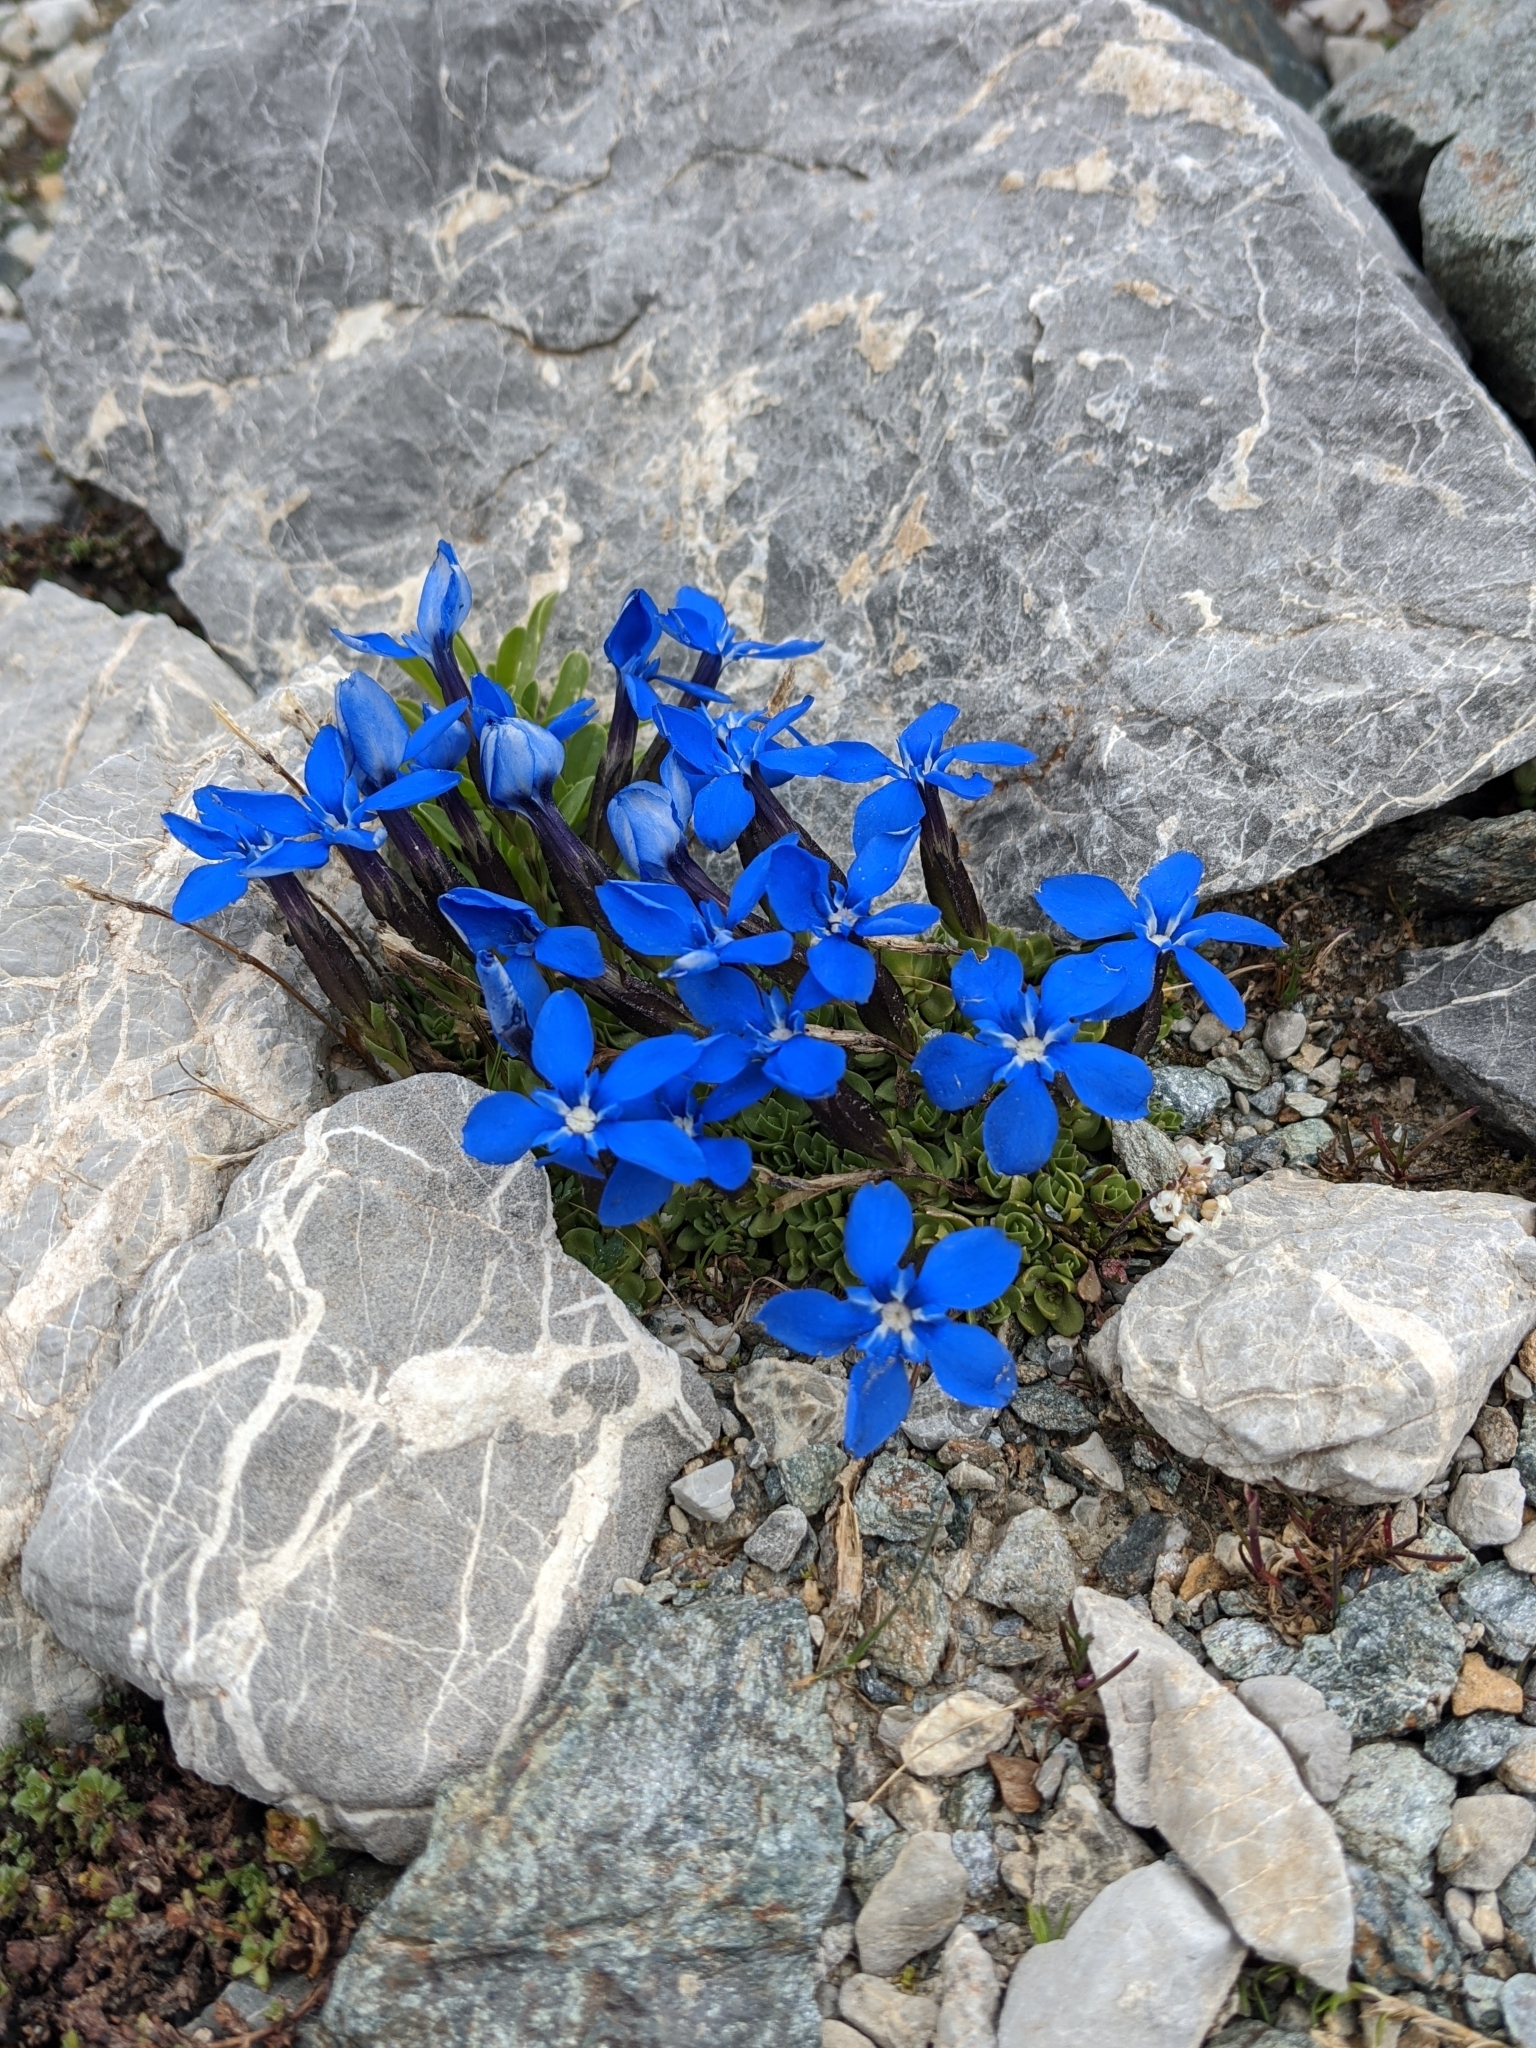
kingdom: Plantae
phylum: Tracheophyta
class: Magnoliopsida
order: Gentianales
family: Gentianaceae
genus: Gentiana
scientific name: Gentiana terglouensis
